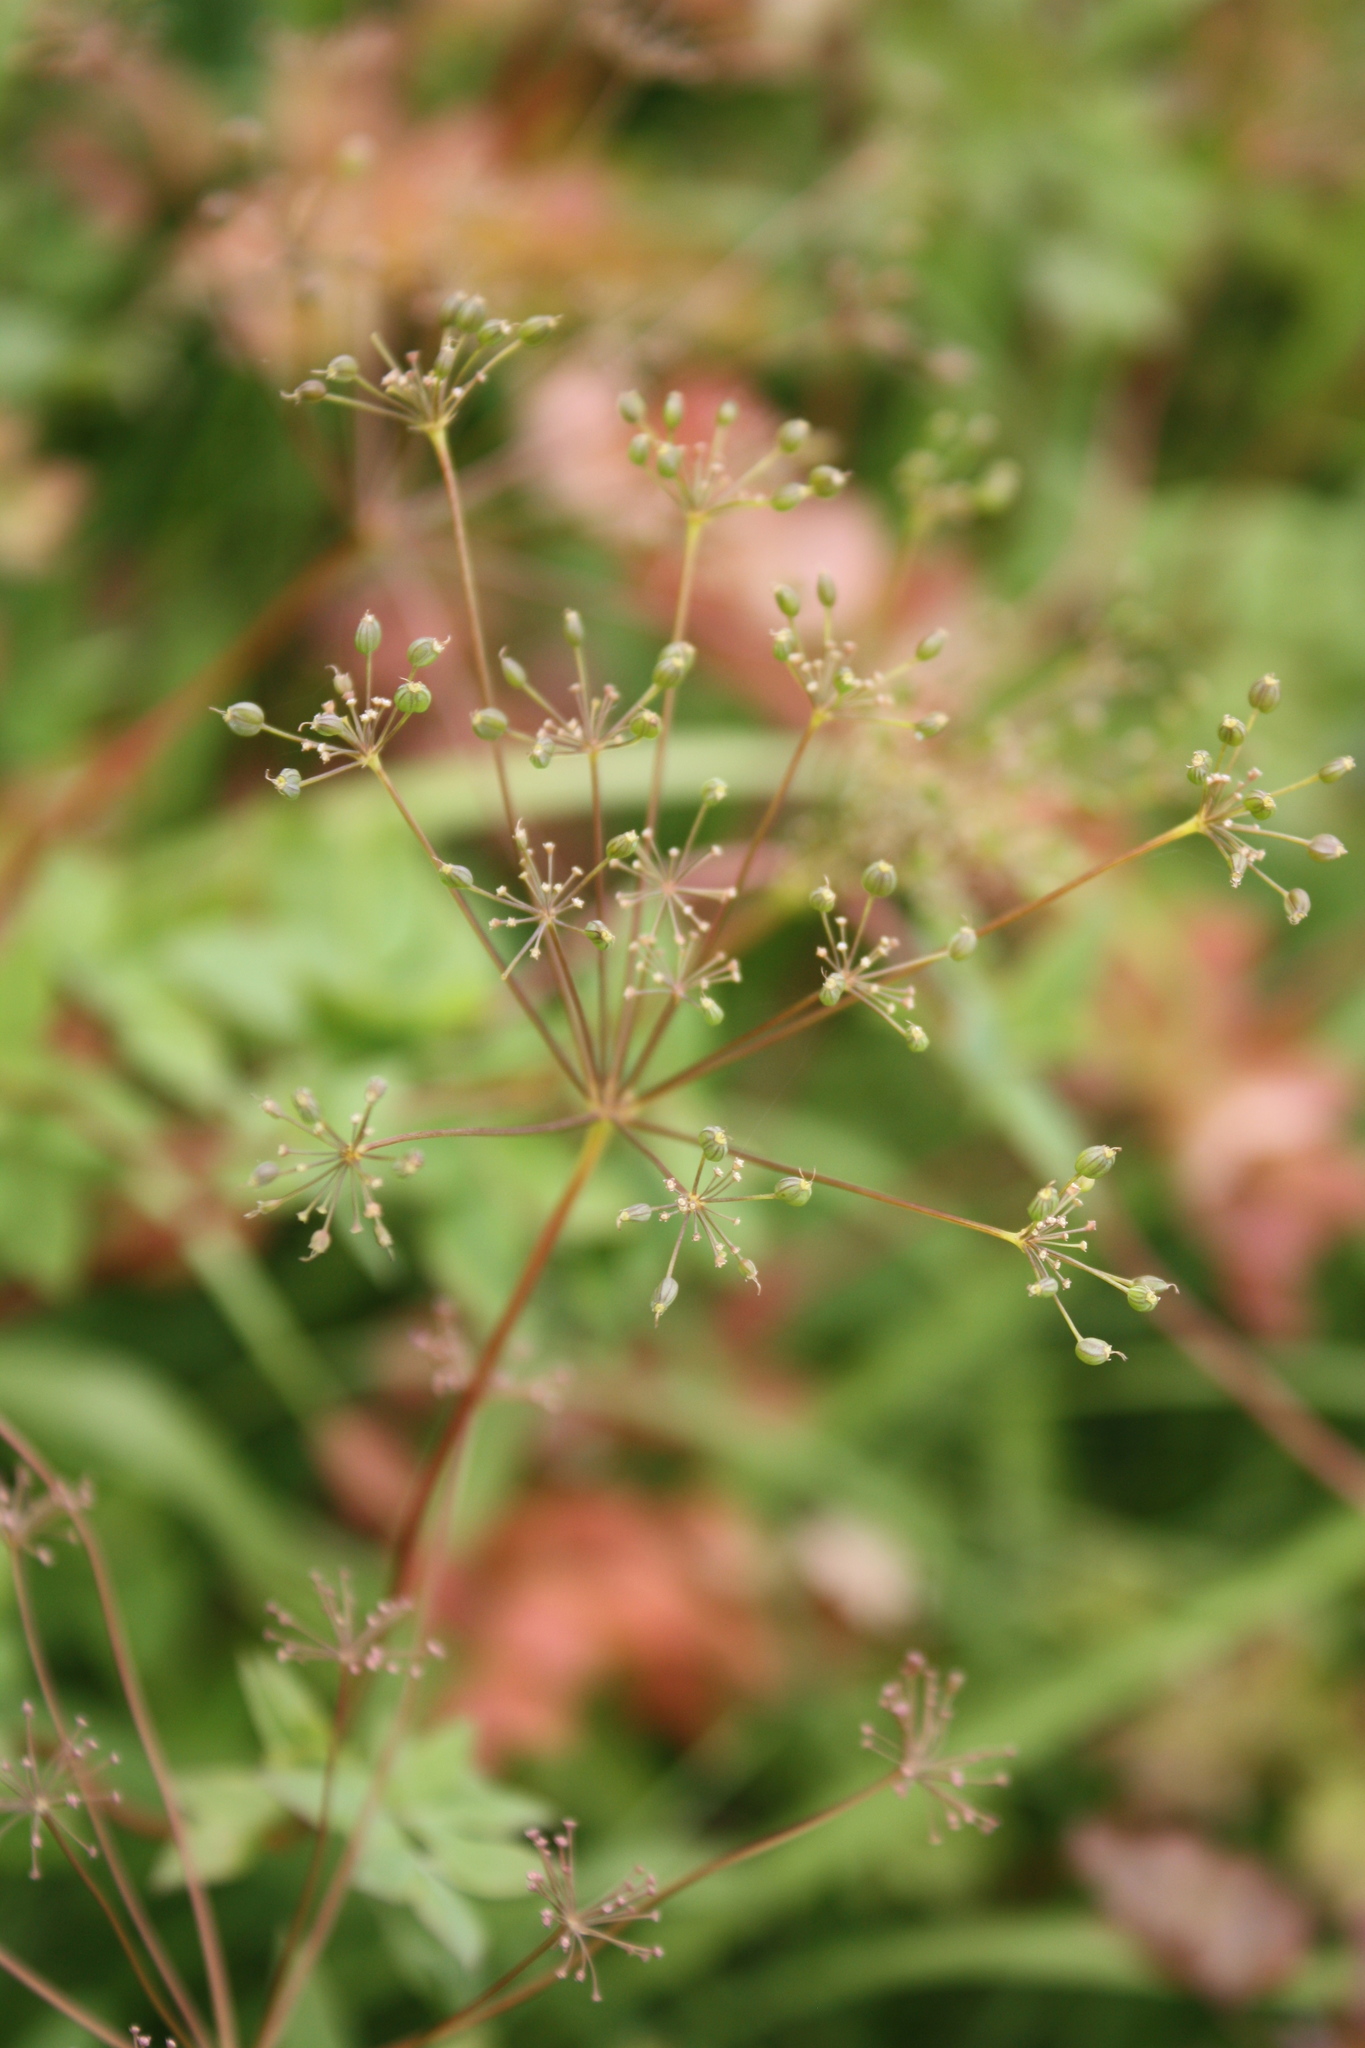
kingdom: Plantae
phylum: Tracheophyta
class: Magnoliopsida
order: Apiales
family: Apiaceae
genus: Taenidia
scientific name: Taenidia integerrima
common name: Golden alexander
